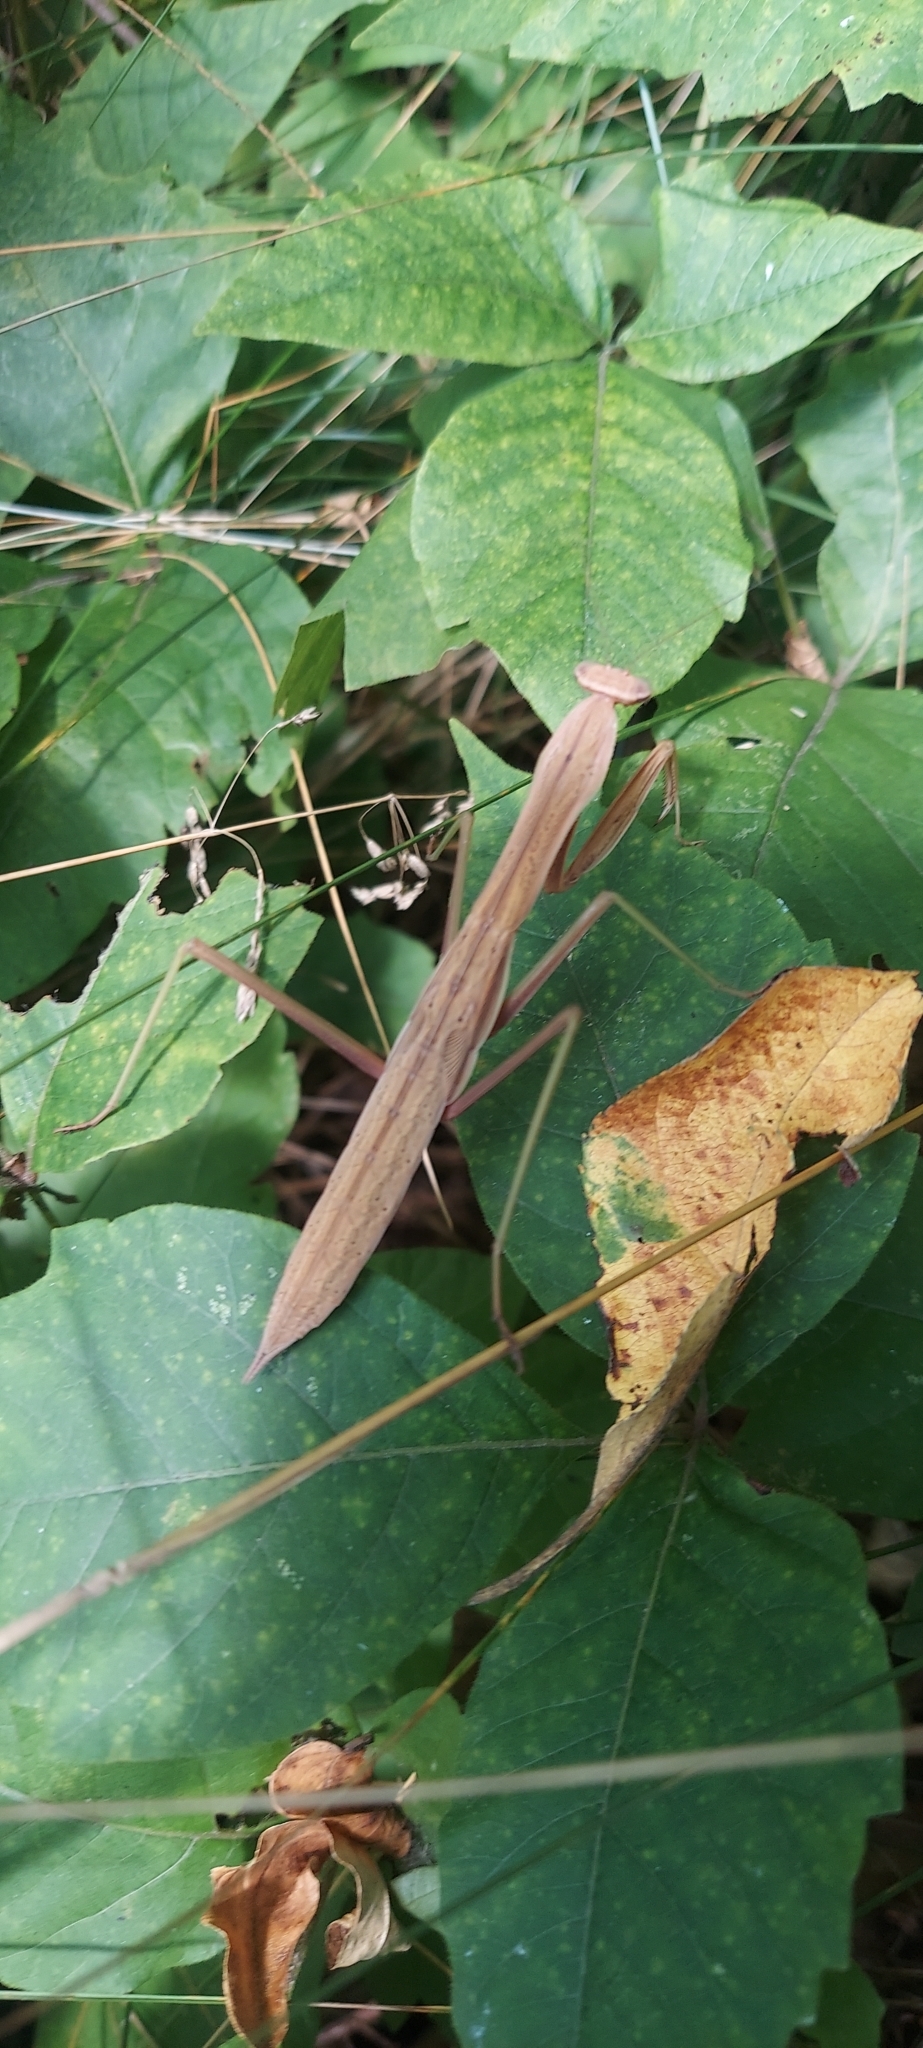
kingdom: Animalia
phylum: Arthropoda
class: Insecta
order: Mantodea
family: Mantidae
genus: Tenodera
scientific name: Tenodera sinensis
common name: Chinese mantis
